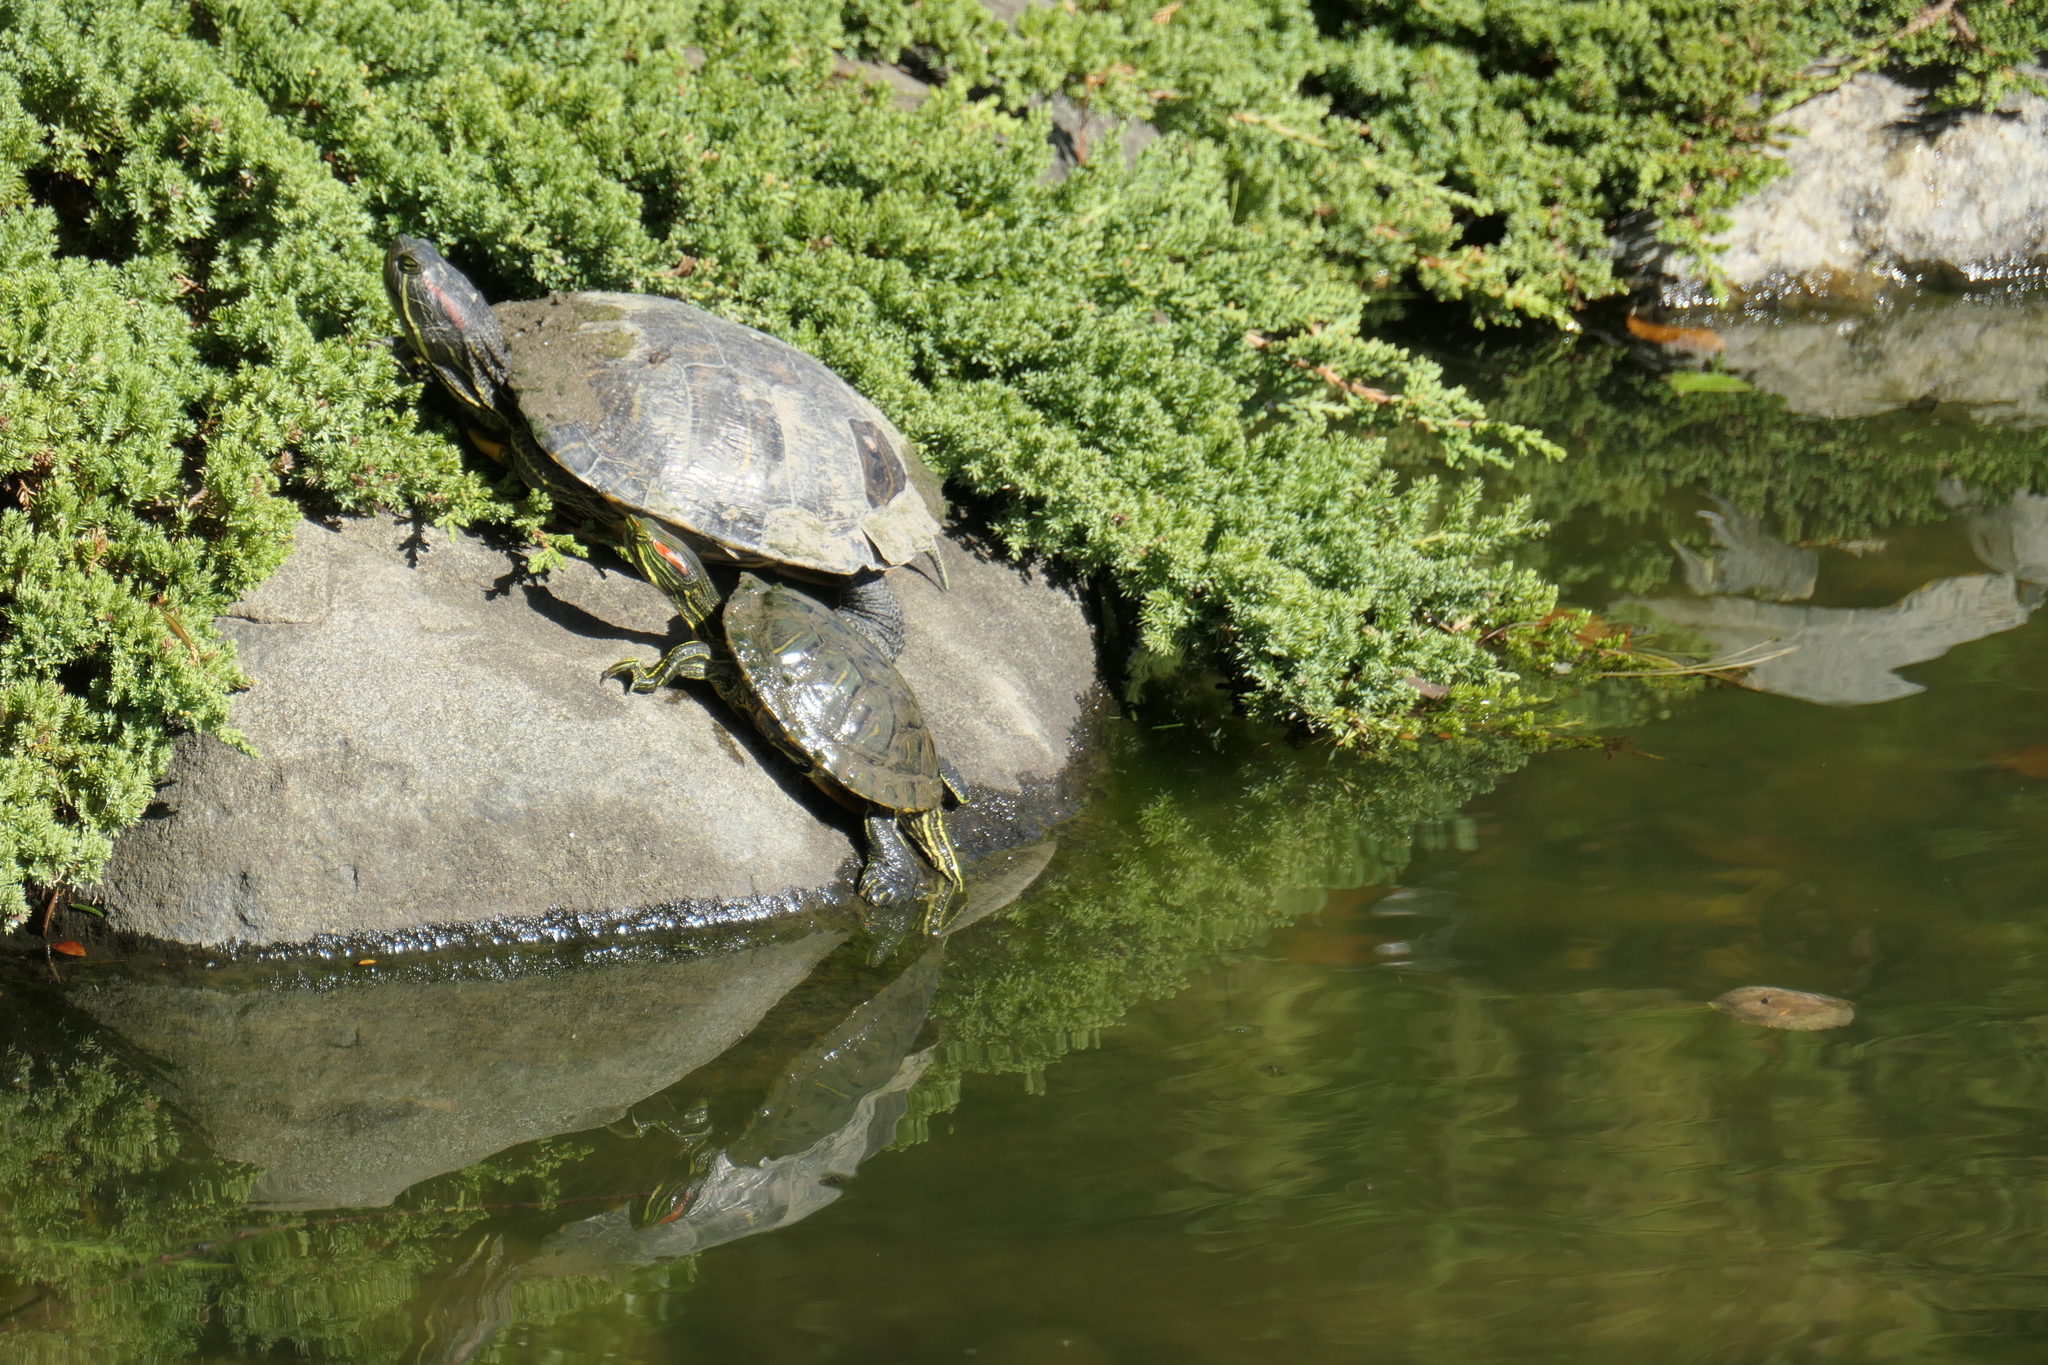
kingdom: Animalia
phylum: Chordata
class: Testudines
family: Emydidae
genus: Trachemys
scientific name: Trachemys scripta
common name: Slider
